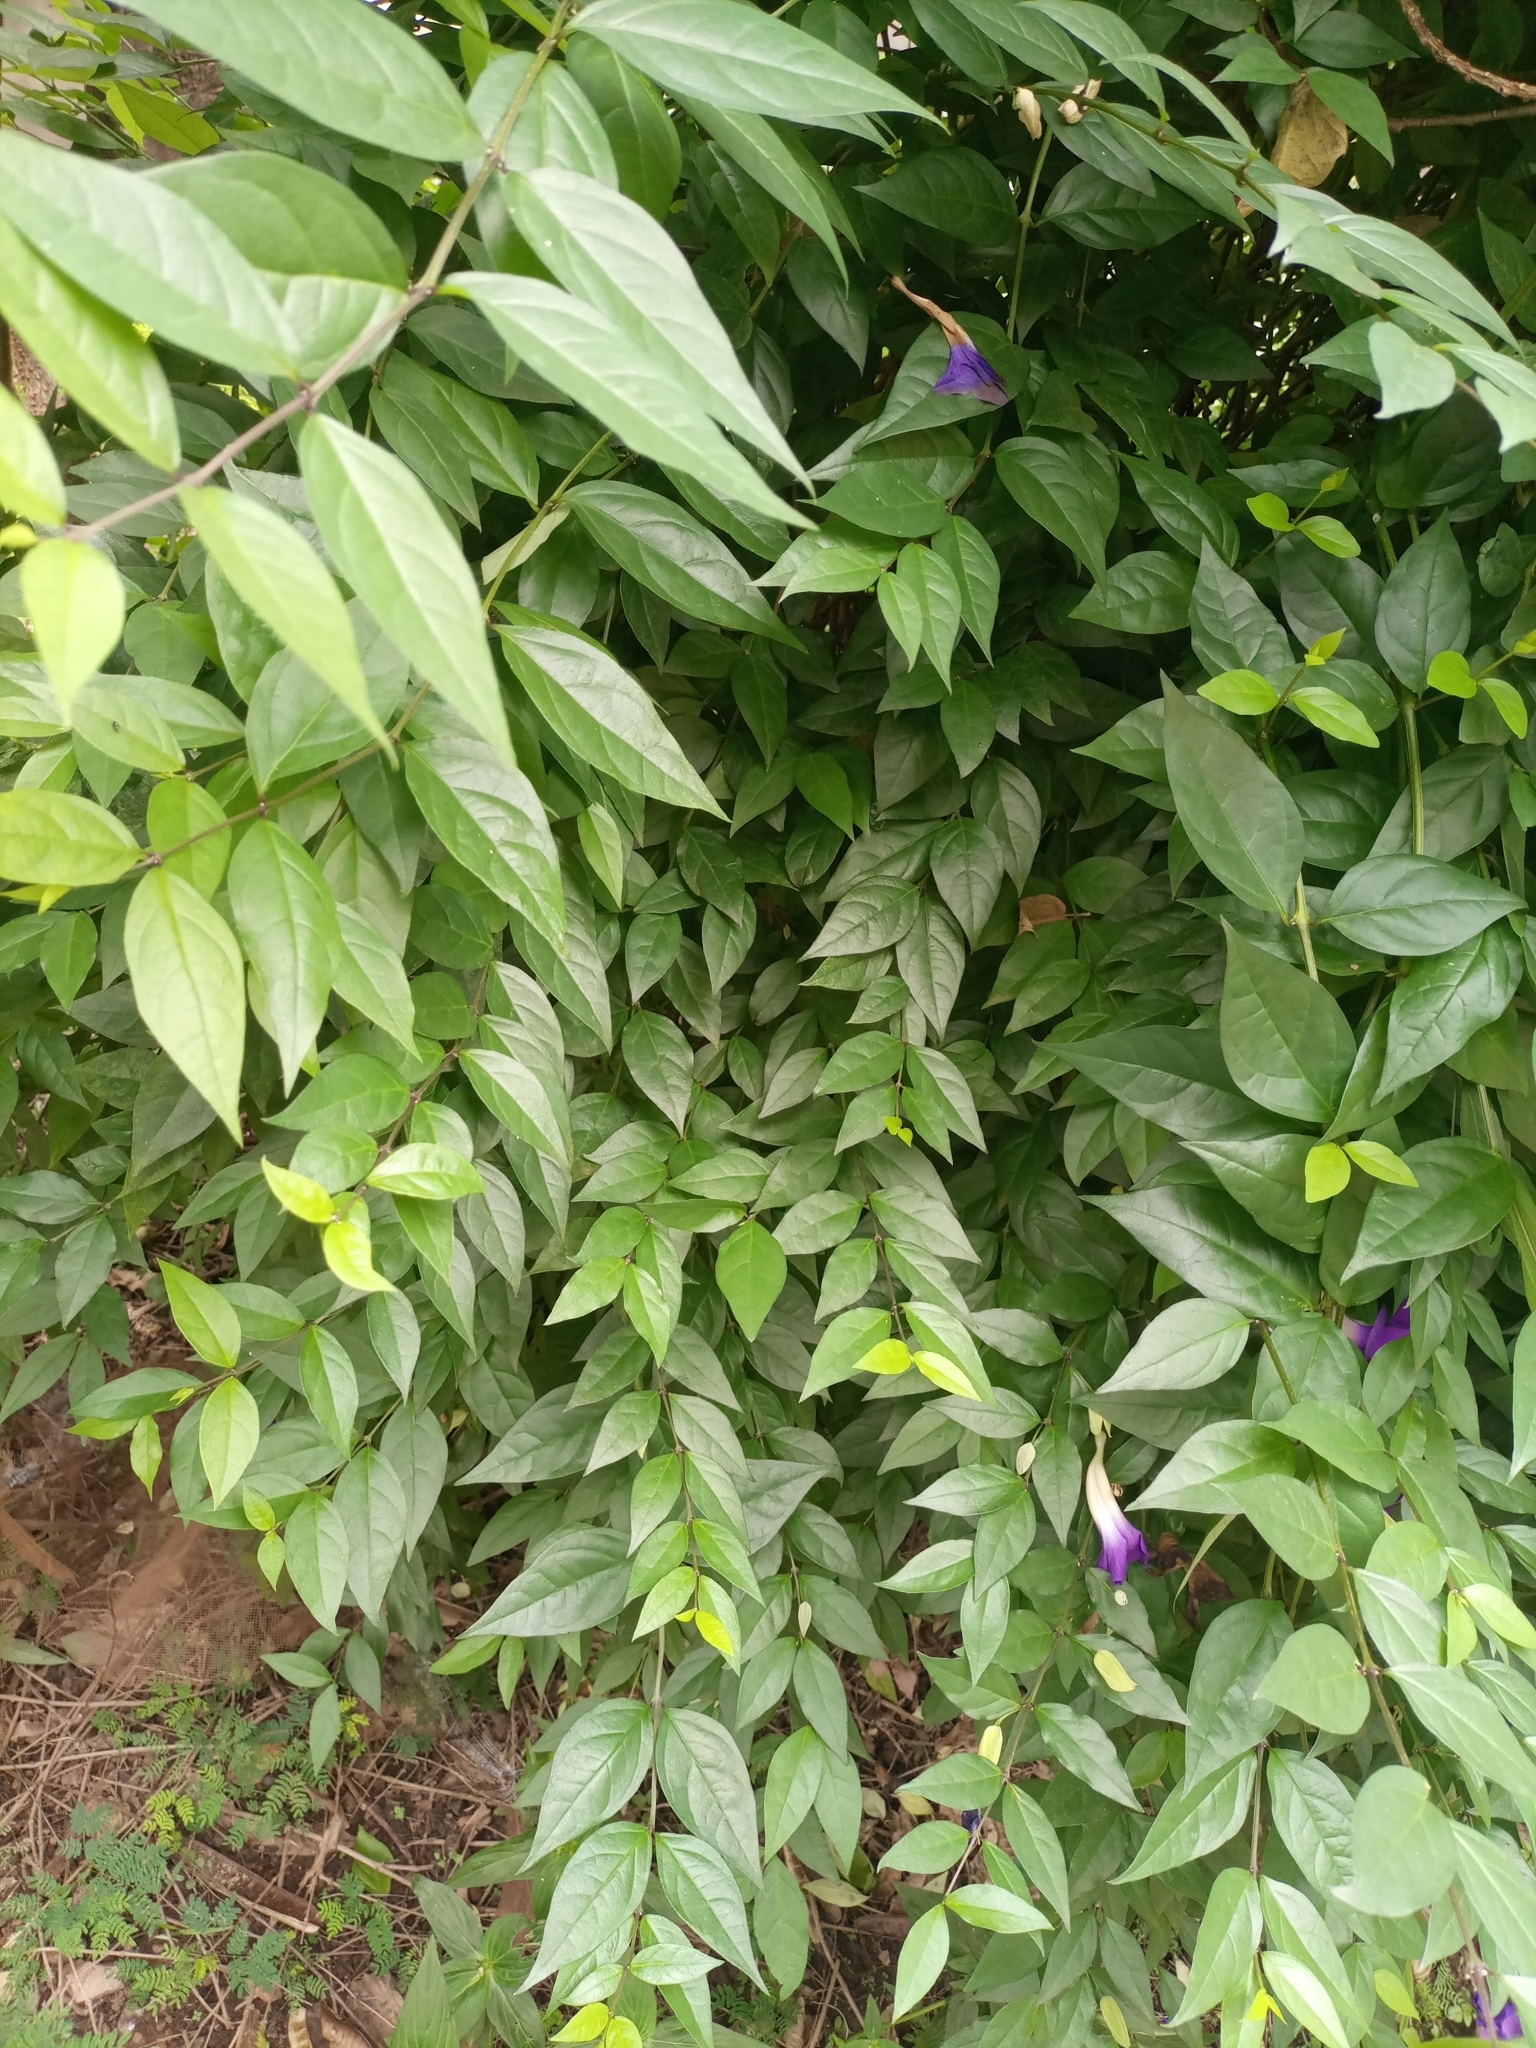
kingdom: Plantae
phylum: Tracheophyta
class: Magnoliopsida
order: Lamiales
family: Acanthaceae
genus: Thunbergia
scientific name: Thunbergia erecta
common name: Bush clockvine
